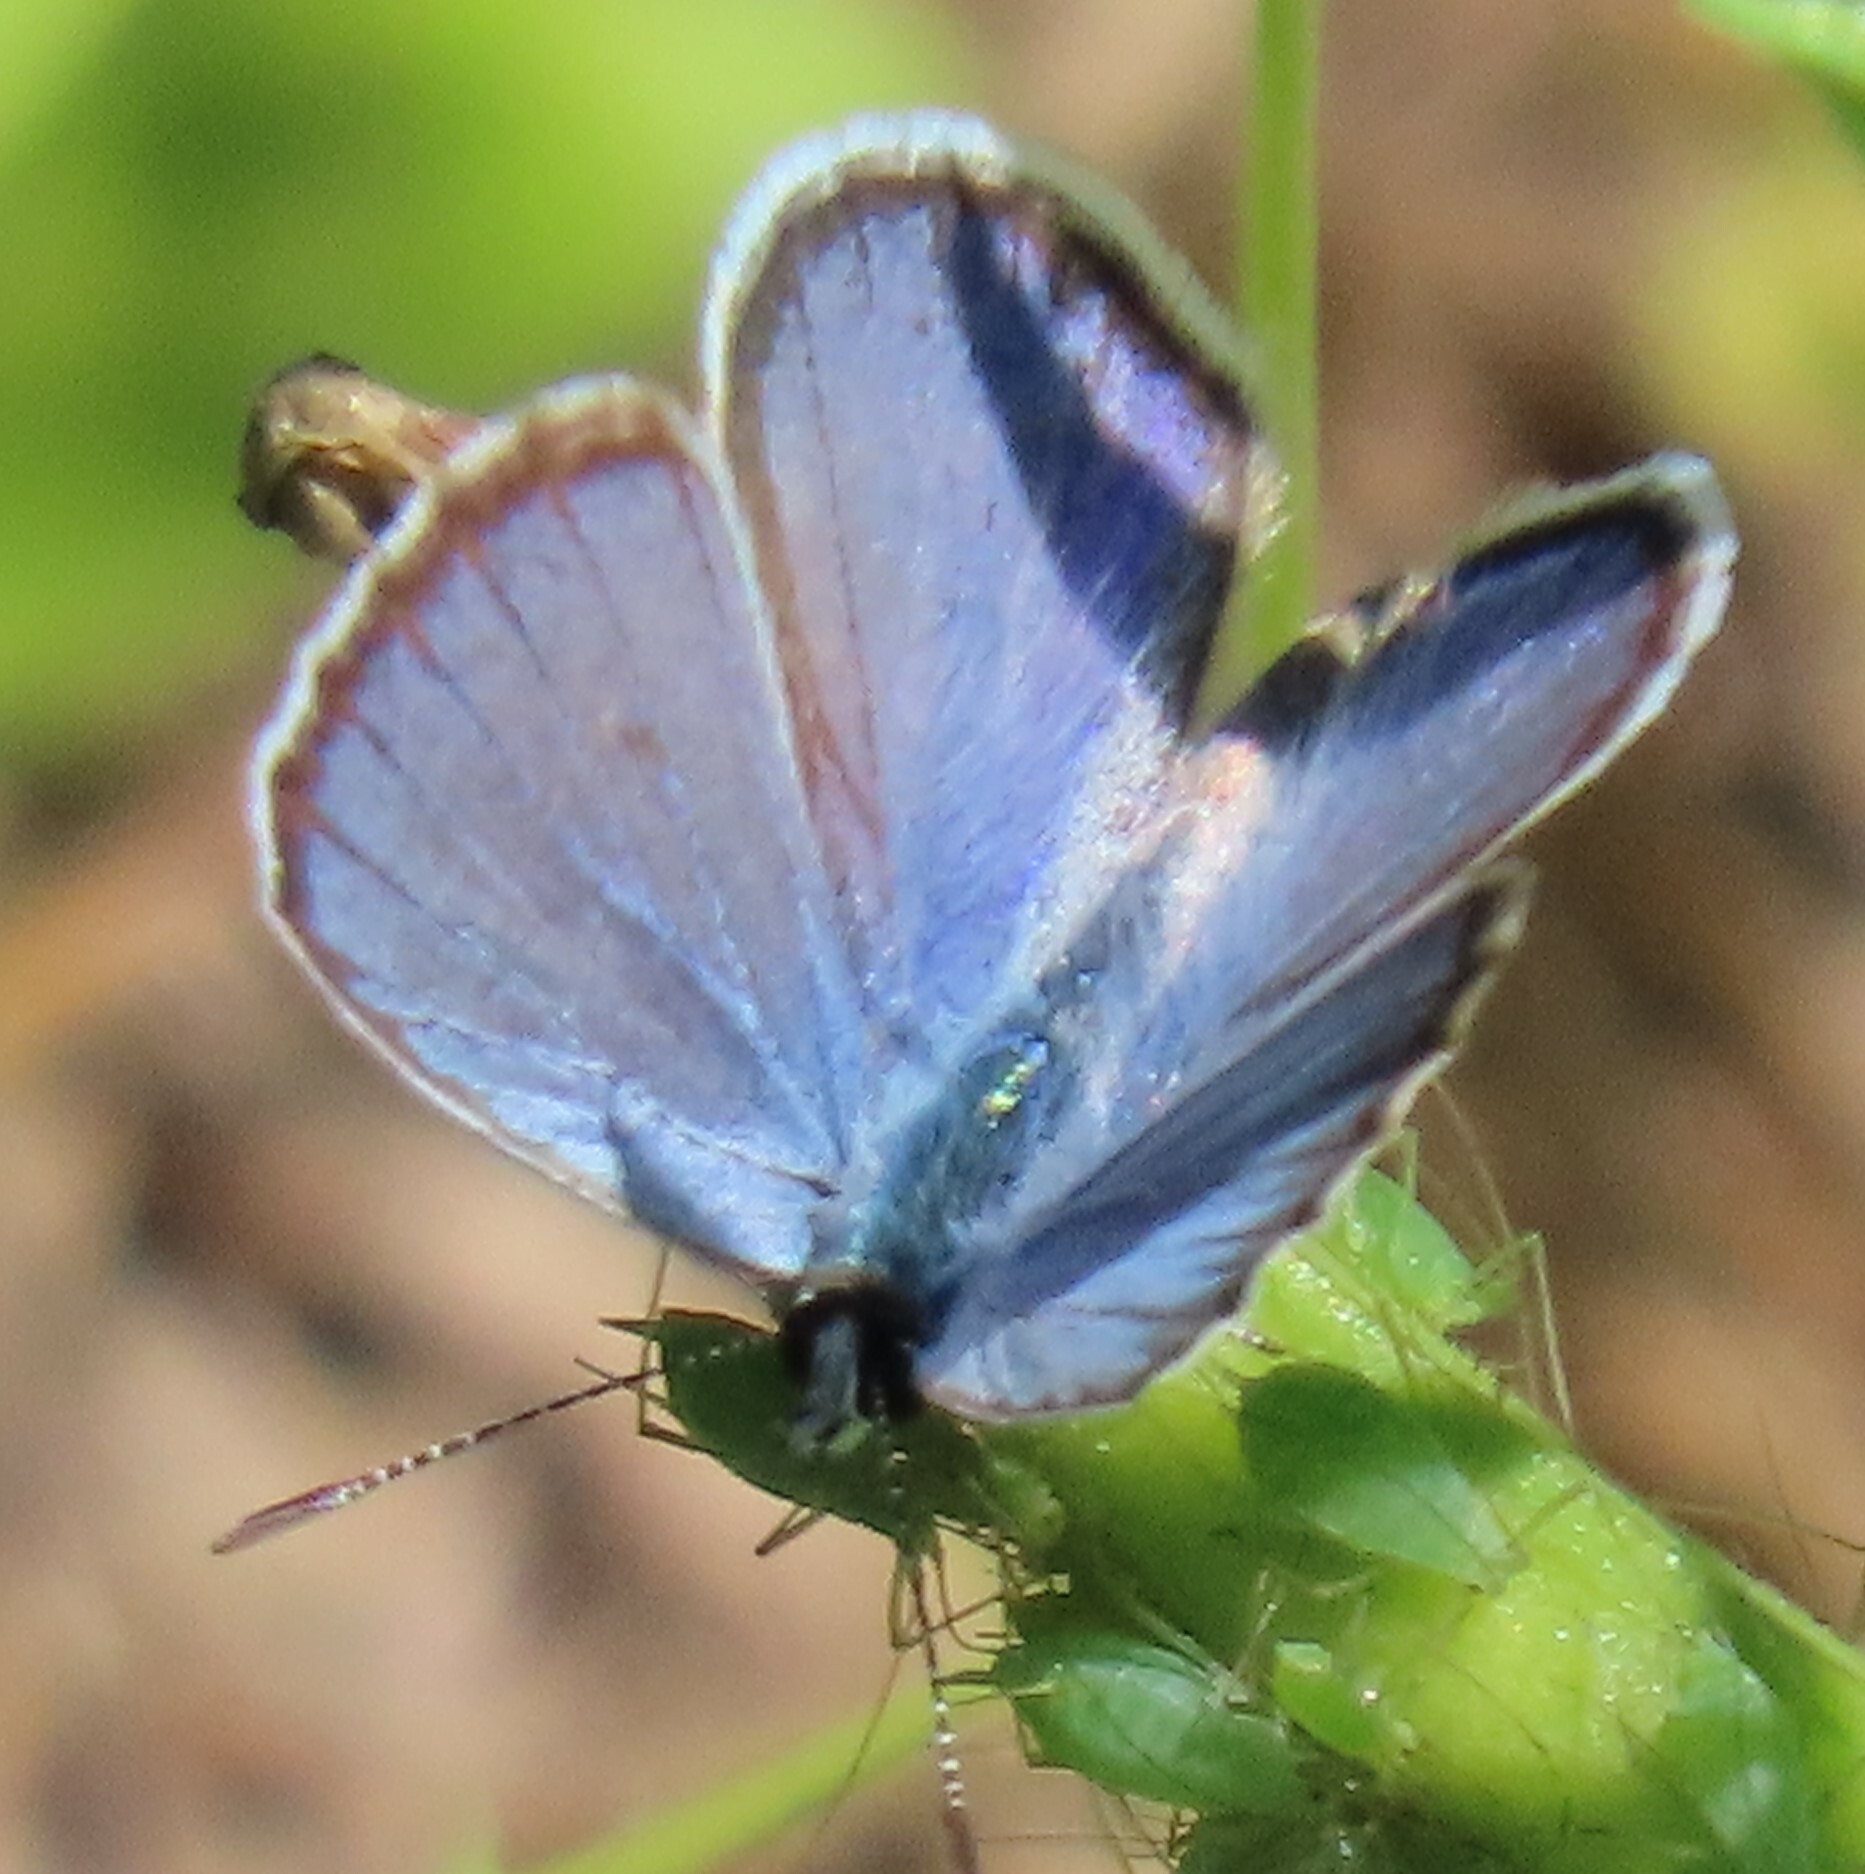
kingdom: Animalia
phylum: Arthropoda
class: Insecta
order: Lepidoptera
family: Lycaenidae
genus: Hemiargus
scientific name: Hemiargus ceraunus
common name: Ceraunus blue
